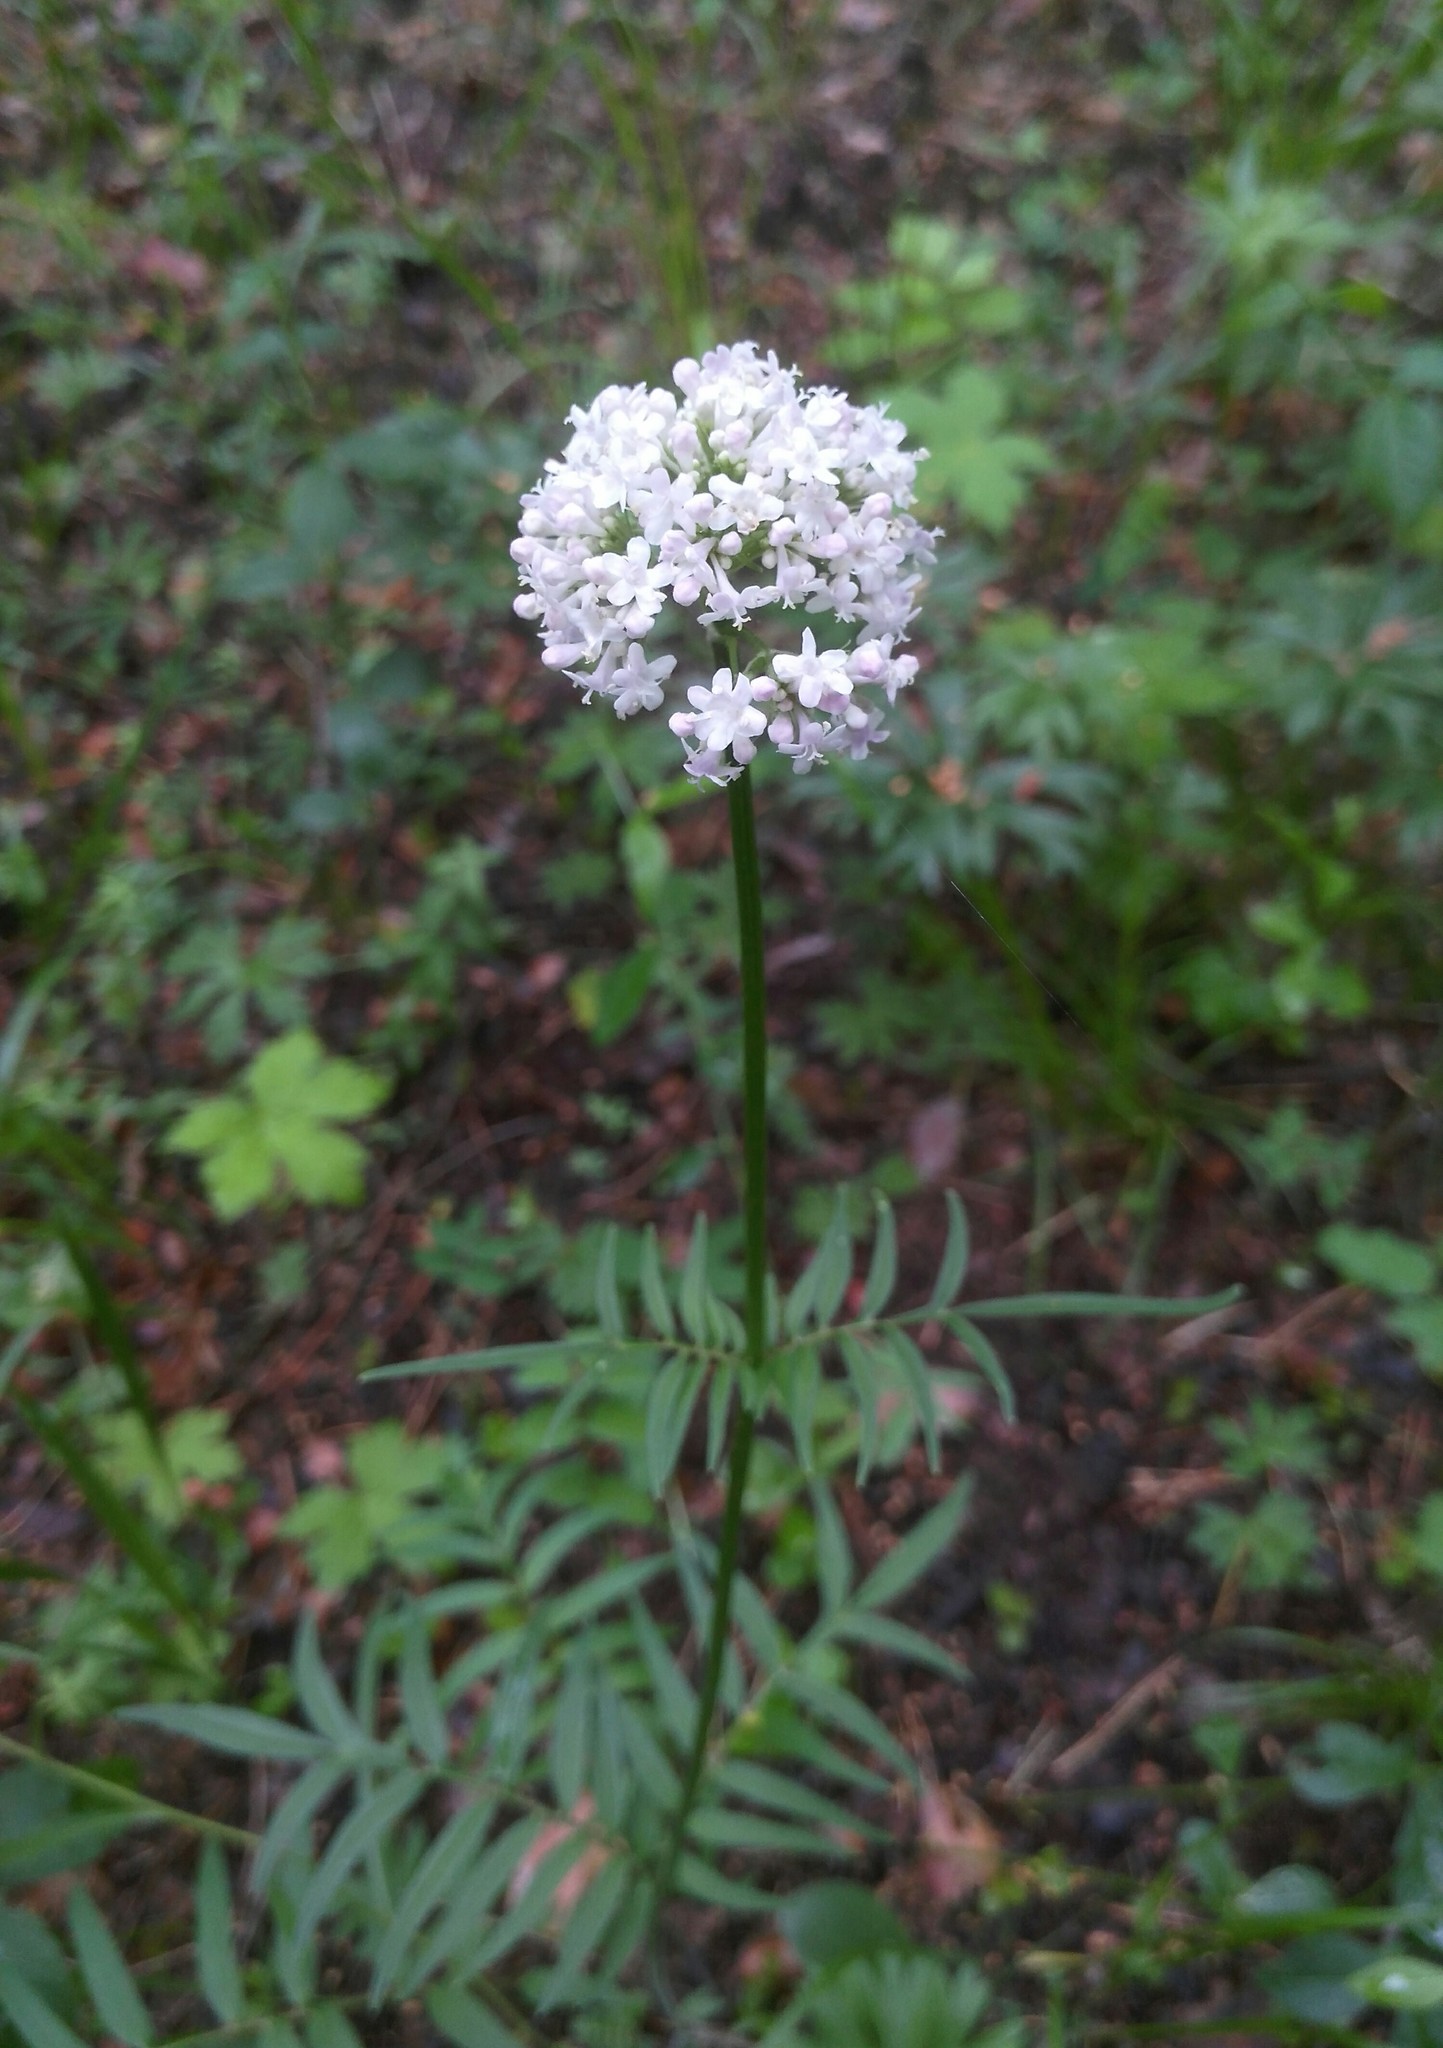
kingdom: Plantae
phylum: Tracheophyta
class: Magnoliopsida
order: Dipsacales
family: Caprifoliaceae
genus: Valeriana
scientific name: Valeriana alternifolia
